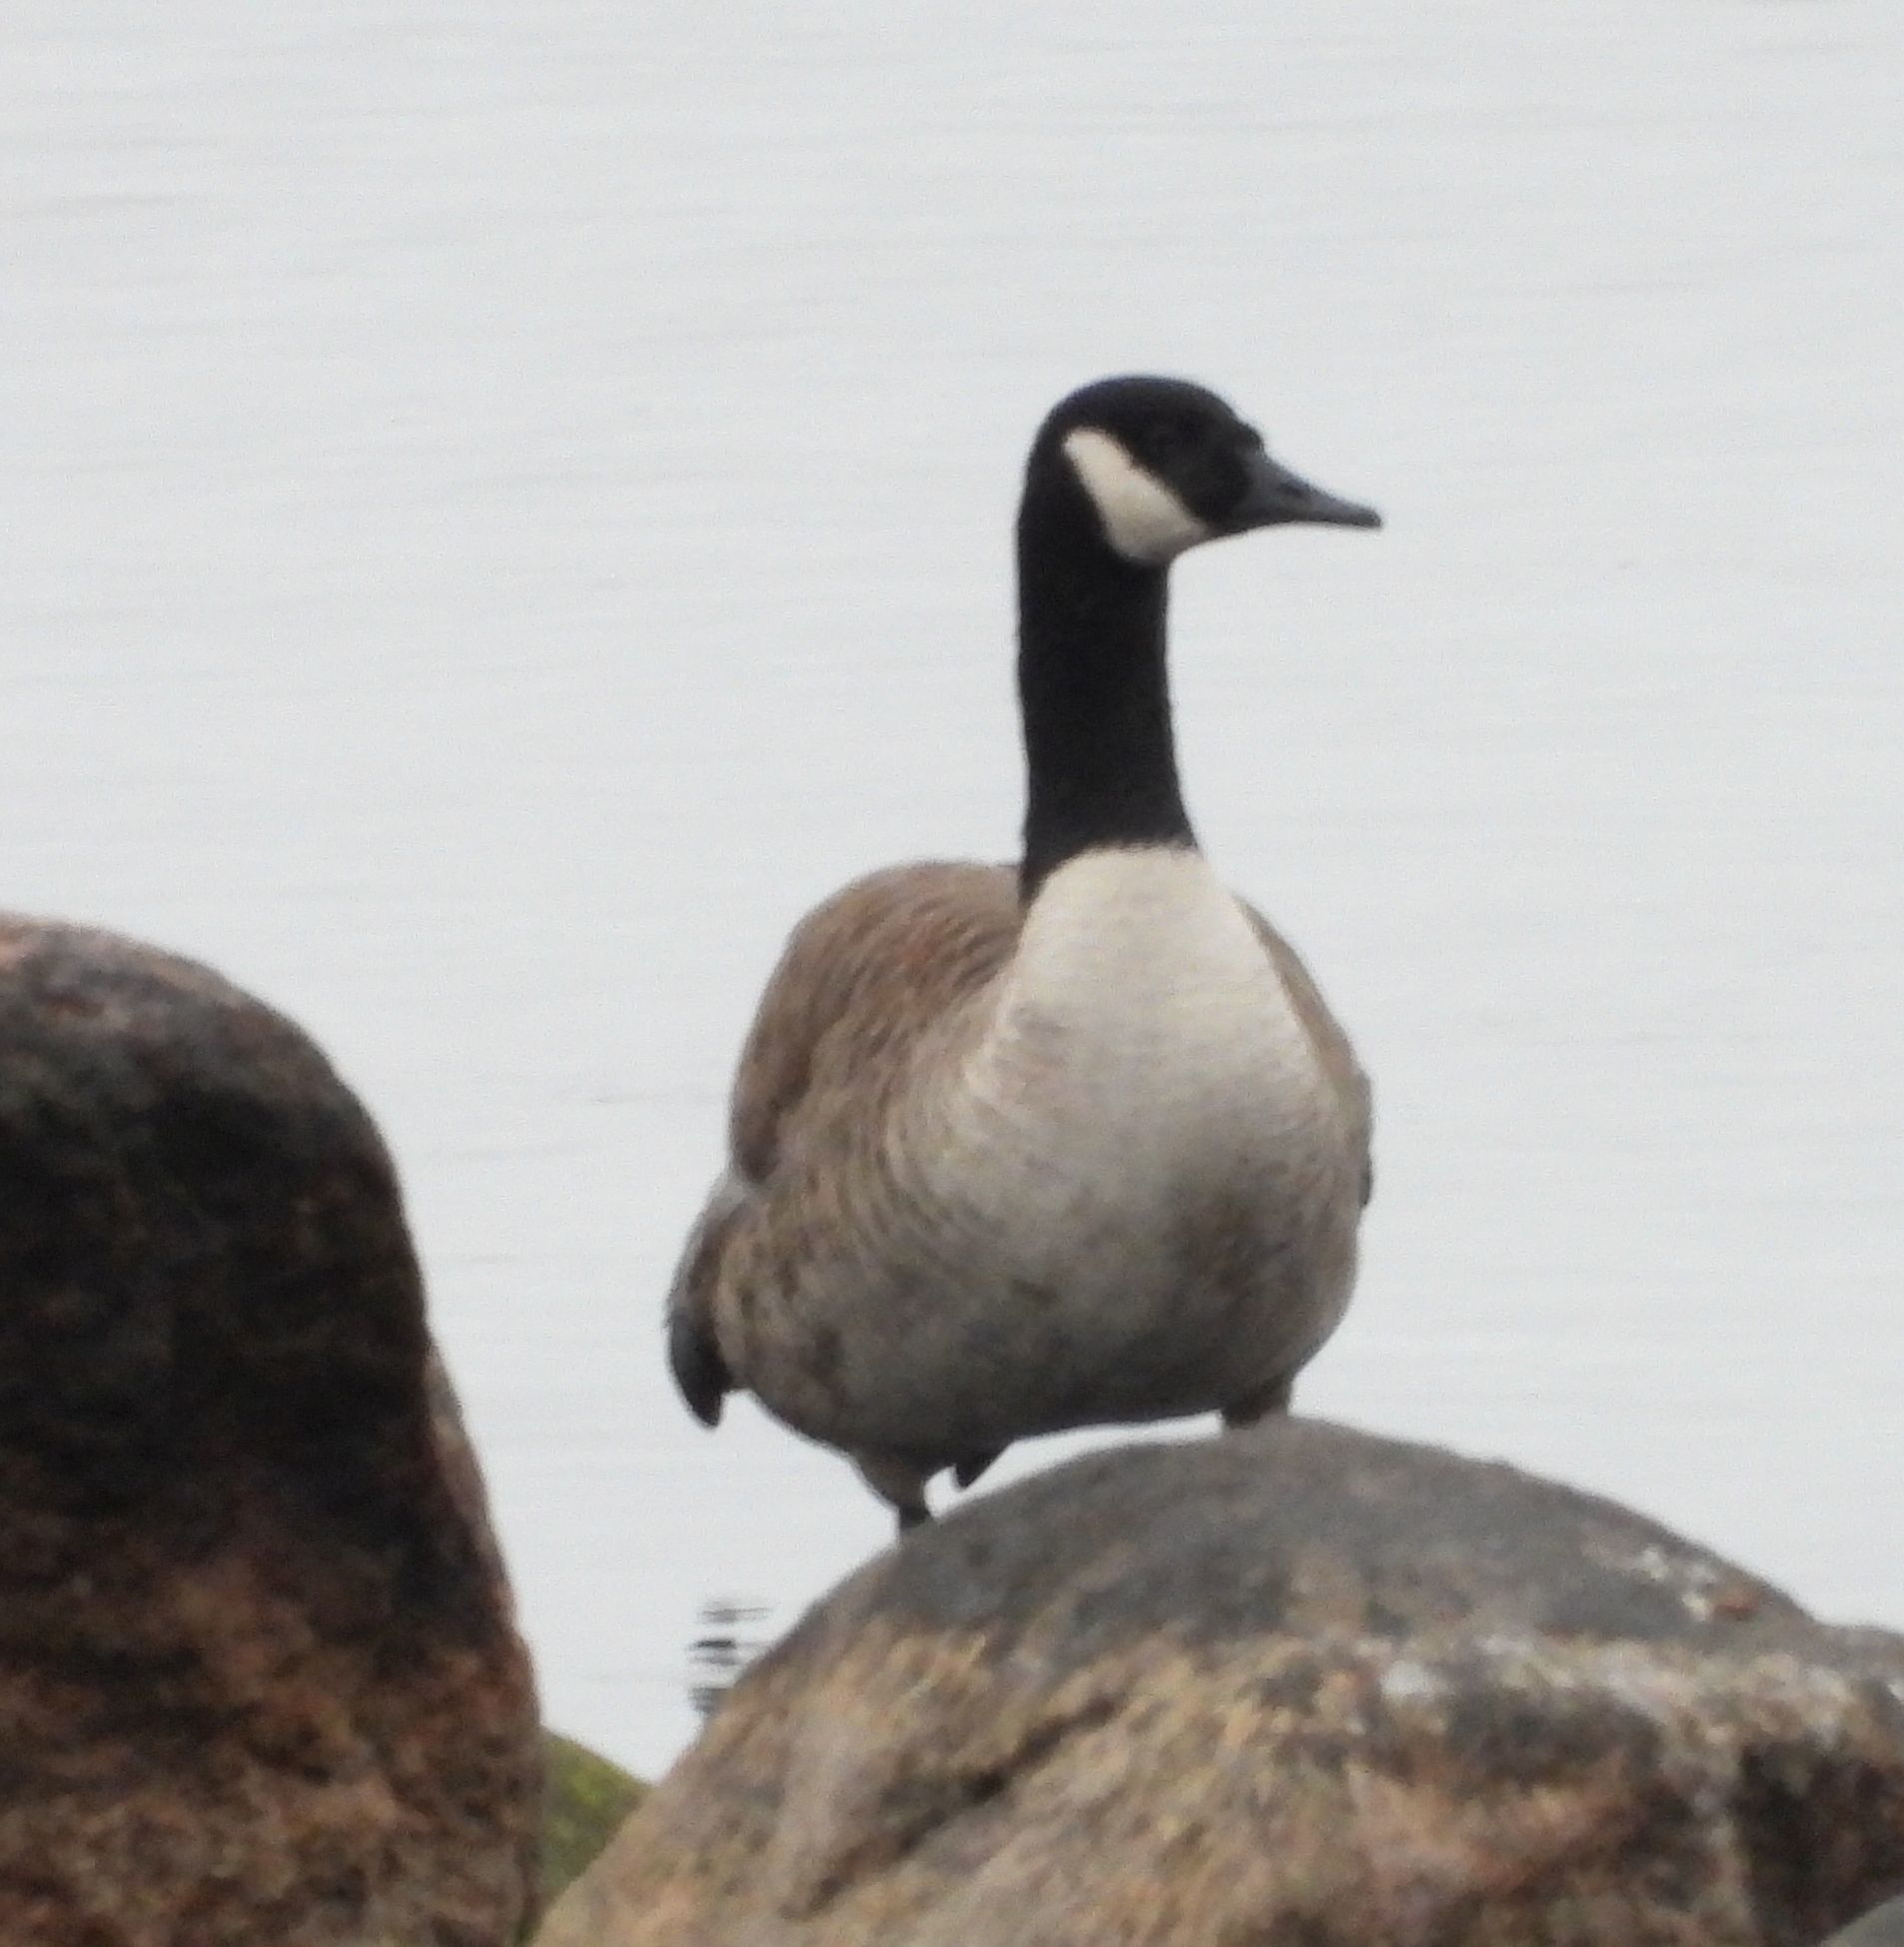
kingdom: Animalia
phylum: Chordata
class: Aves
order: Anseriformes
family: Anatidae
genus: Branta
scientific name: Branta canadensis
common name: Canada goose
